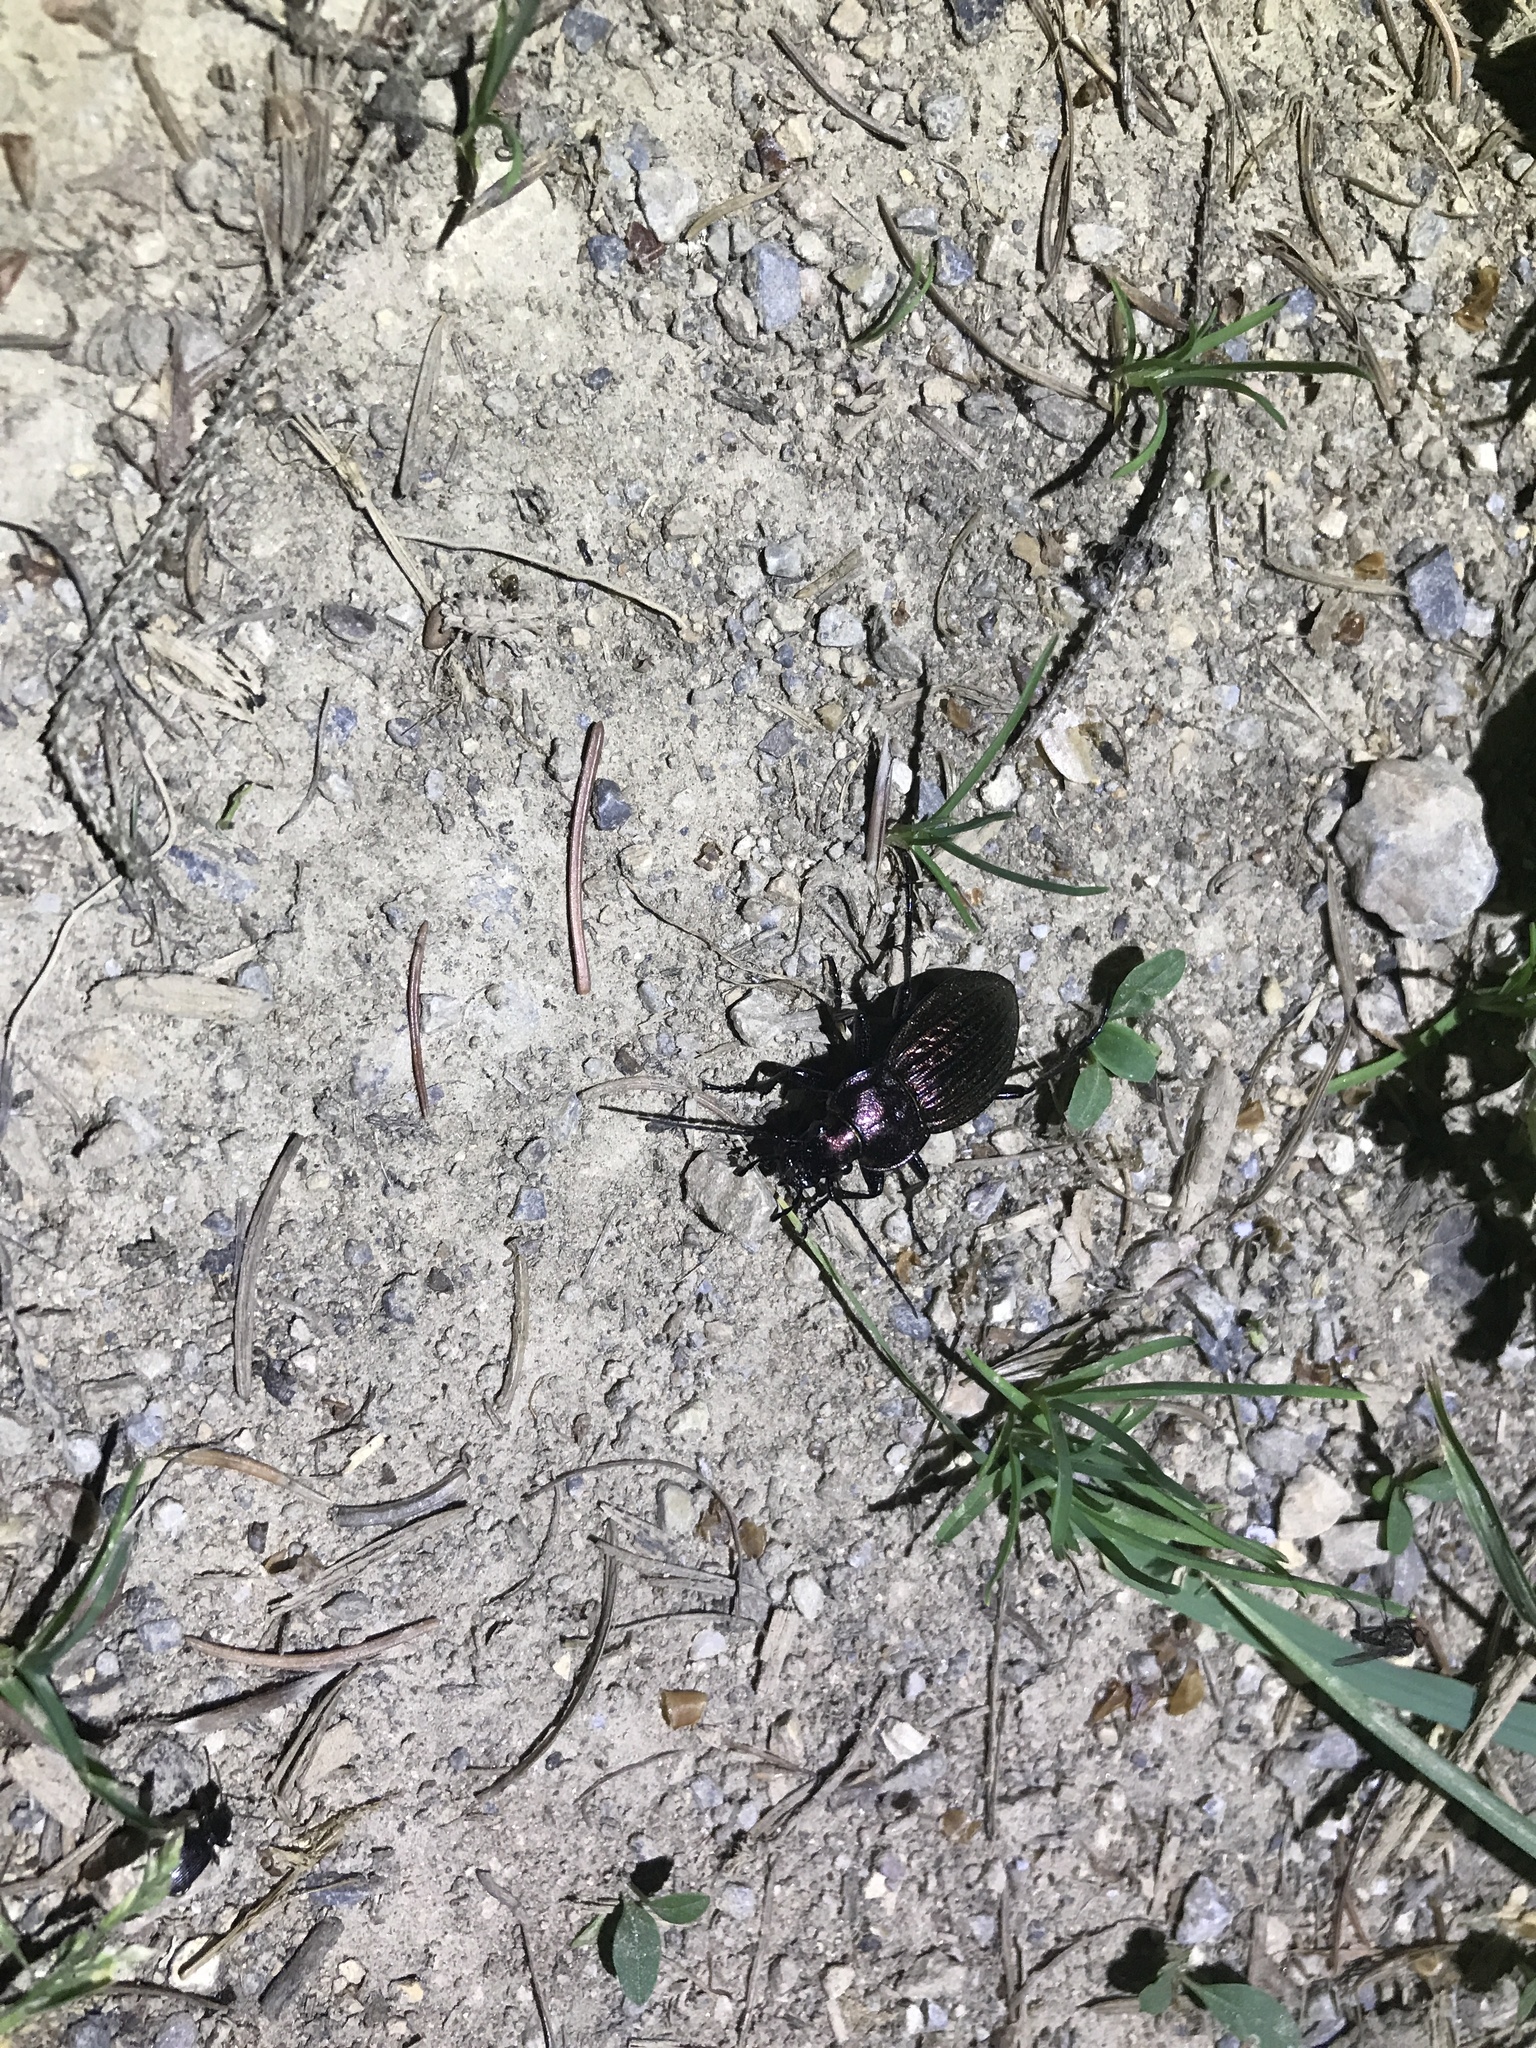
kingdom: Animalia
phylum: Arthropoda
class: Insecta
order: Coleoptera
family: Carabidae
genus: Carabus
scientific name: Carabus ulrichii
